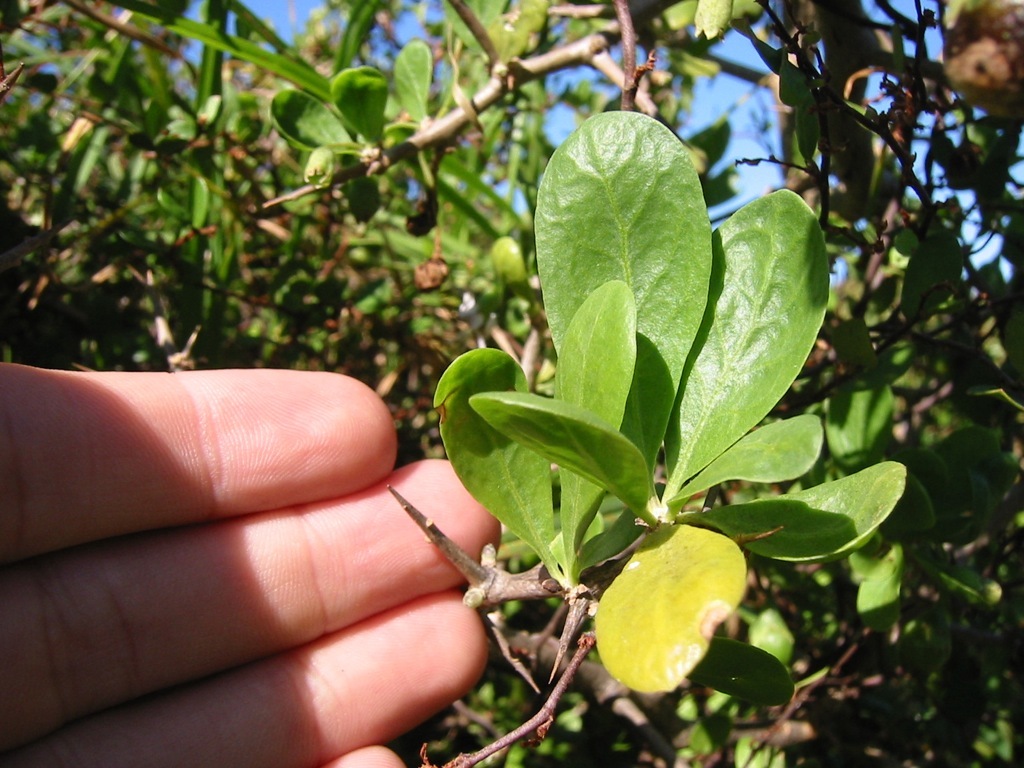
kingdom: Plantae
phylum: Tracheophyta
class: Magnoliopsida
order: Solanales
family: Solanaceae
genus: Lycium
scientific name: Lycium ferocissimum
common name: African boxthorn
